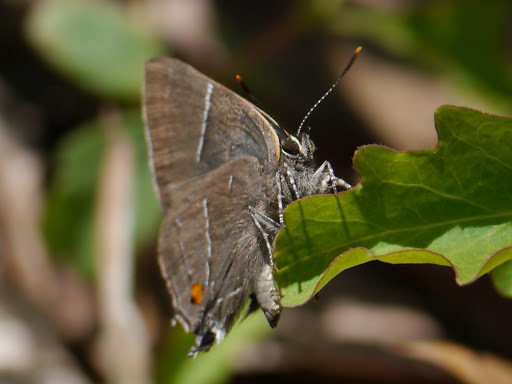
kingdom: Animalia
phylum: Arthropoda
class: Insecta
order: Lepidoptera
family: Lycaenidae
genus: Parrhasius
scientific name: Parrhasius m-album
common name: White m hairstreak
